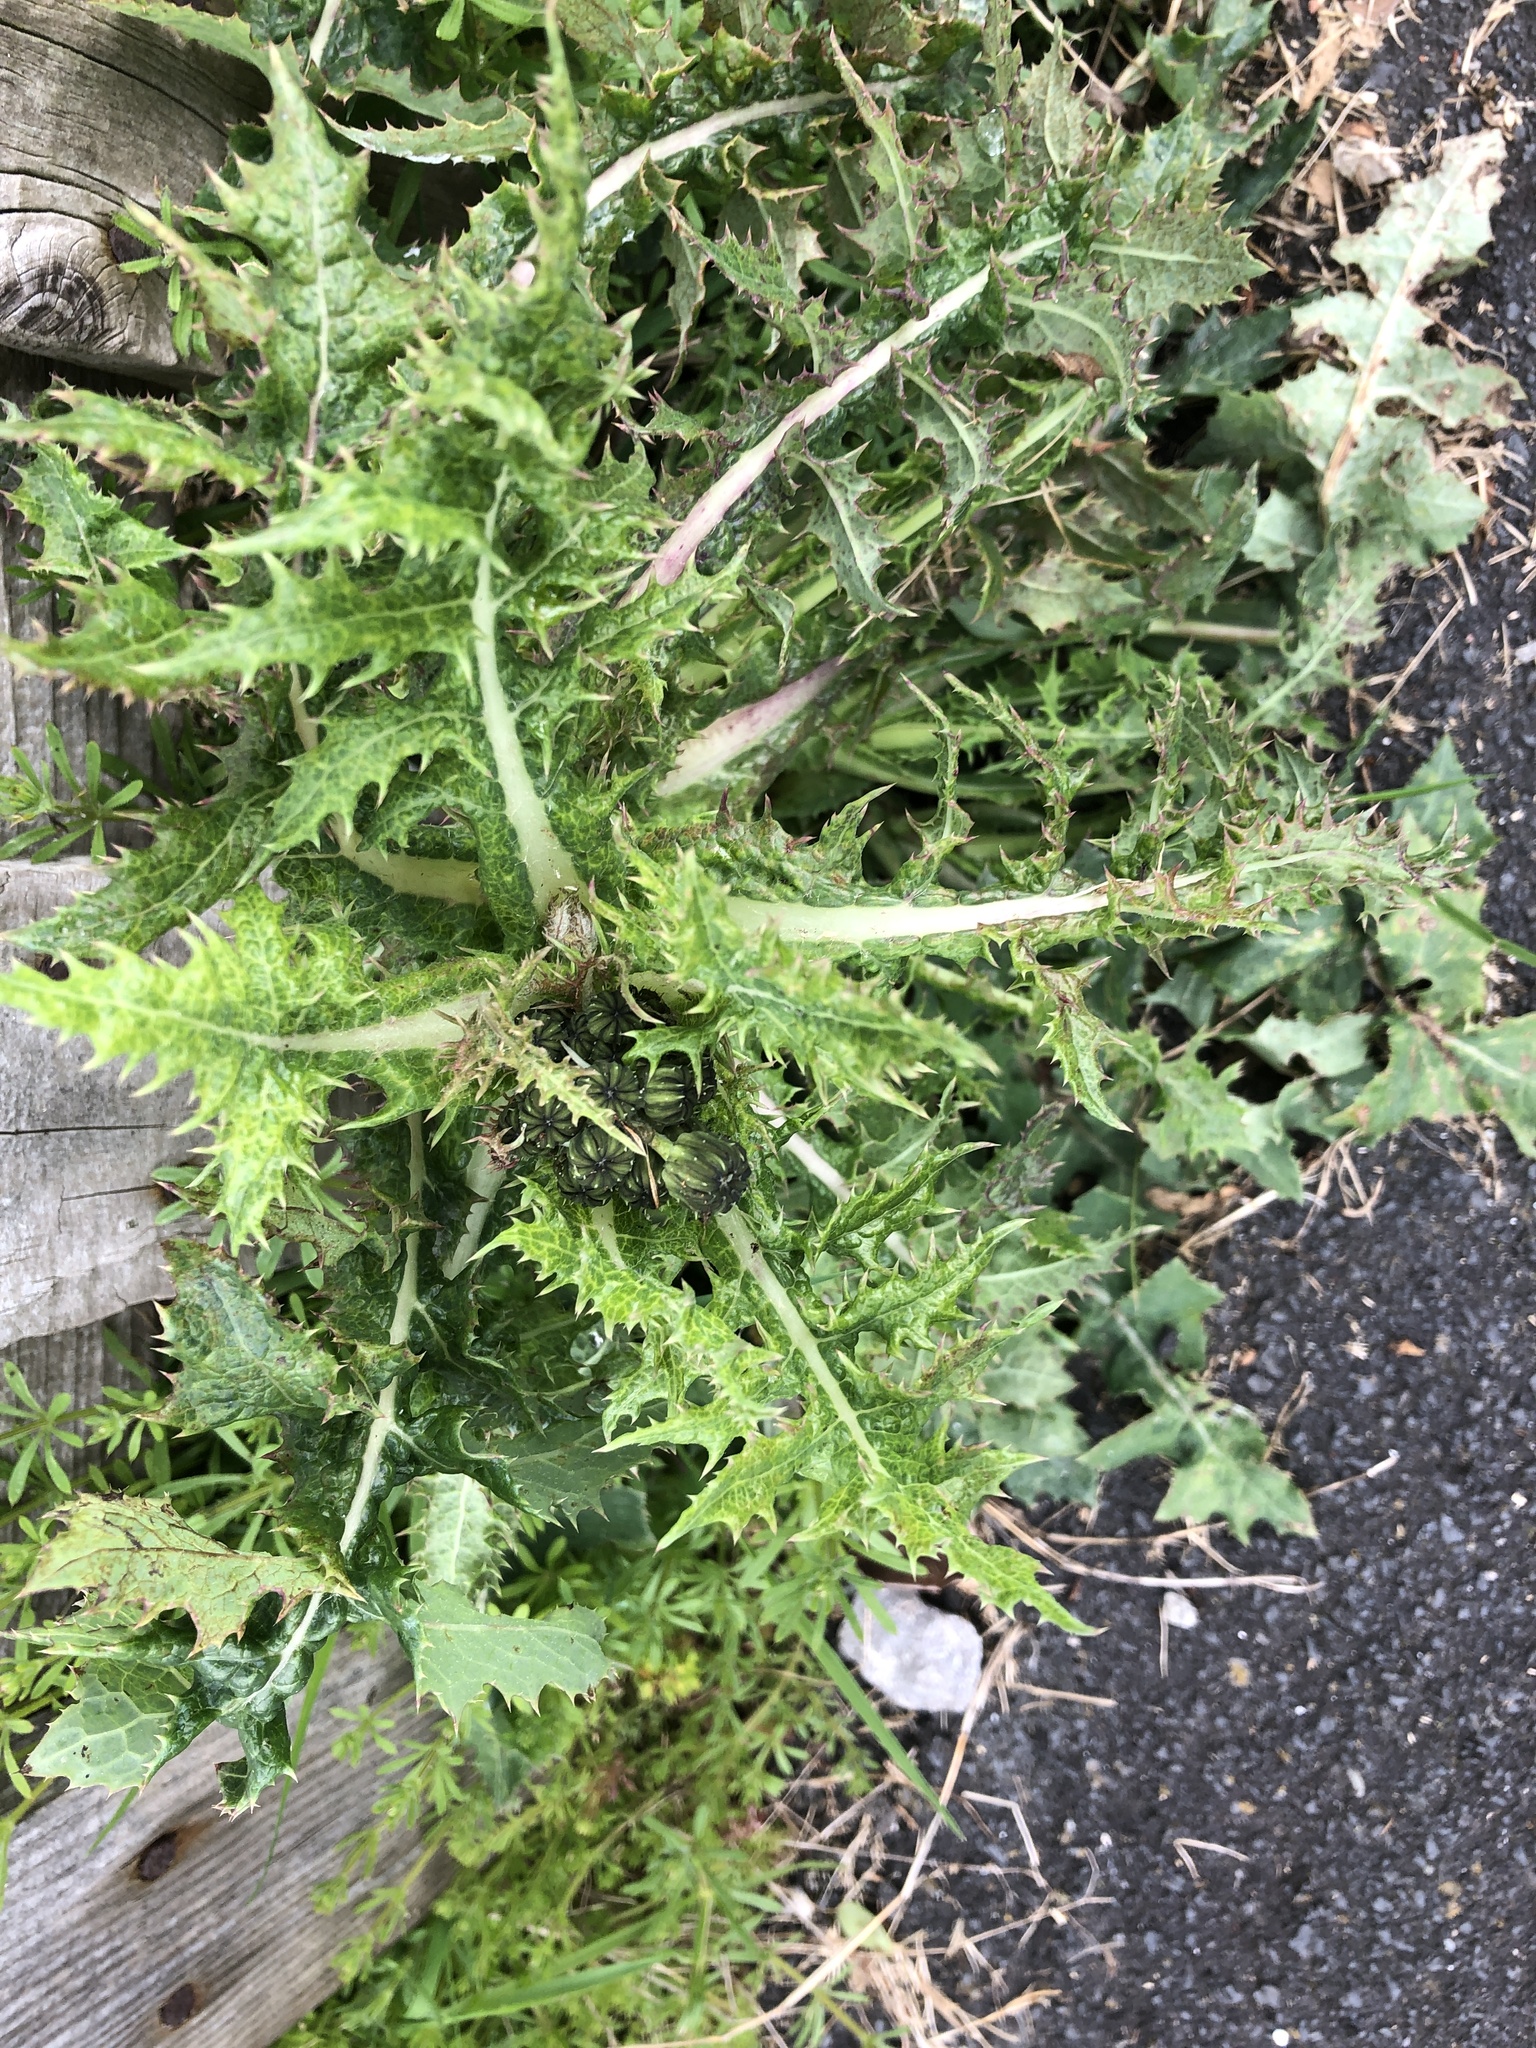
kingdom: Plantae
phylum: Tracheophyta
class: Magnoliopsida
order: Asterales
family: Asteraceae
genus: Sonchus
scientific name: Sonchus asper
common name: Prickly sow-thistle
